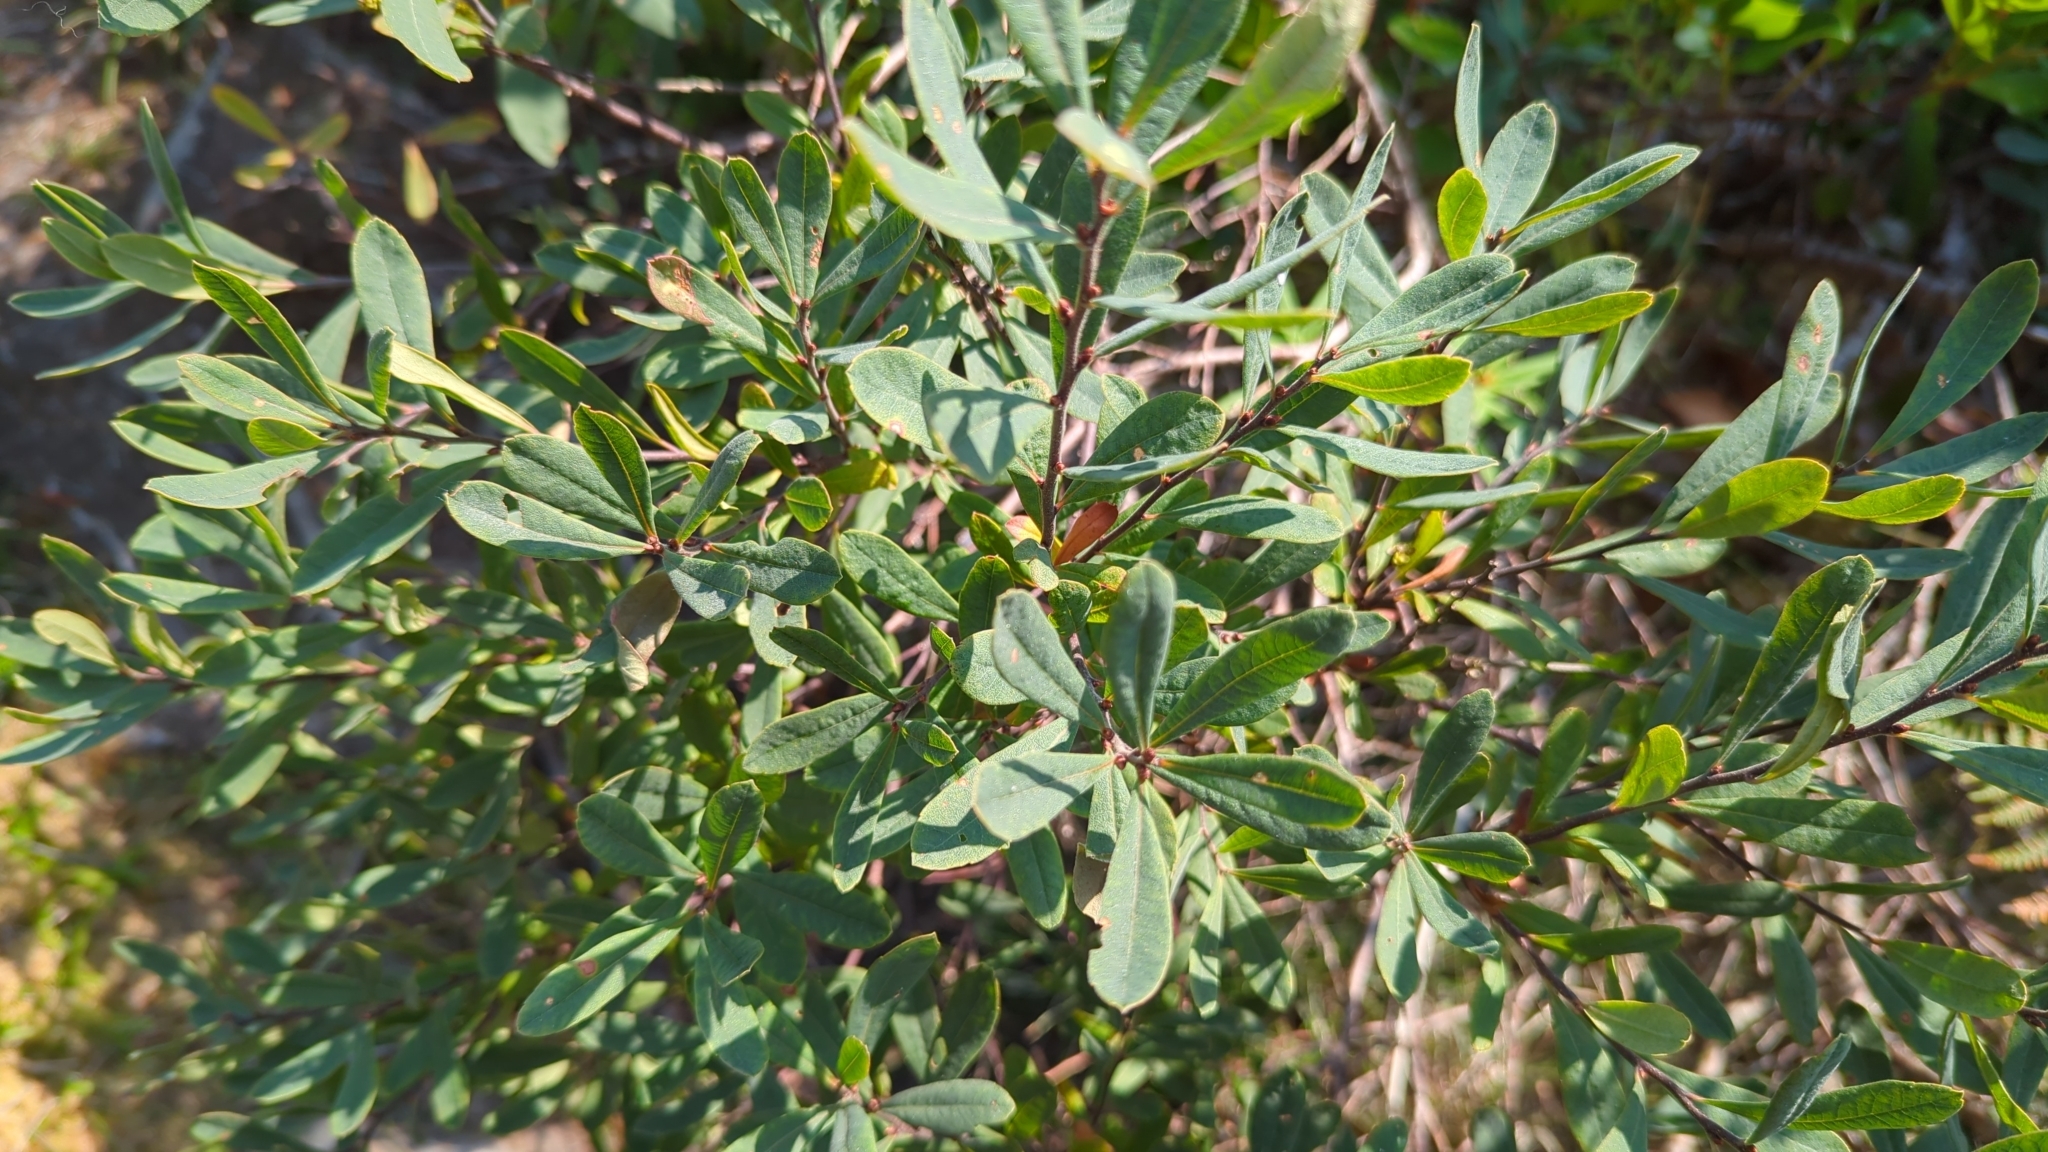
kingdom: Plantae
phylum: Tracheophyta
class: Magnoliopsida
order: Fagales
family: Myricaceae
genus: Myrica
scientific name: Myrica gale
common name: Sweet gale
